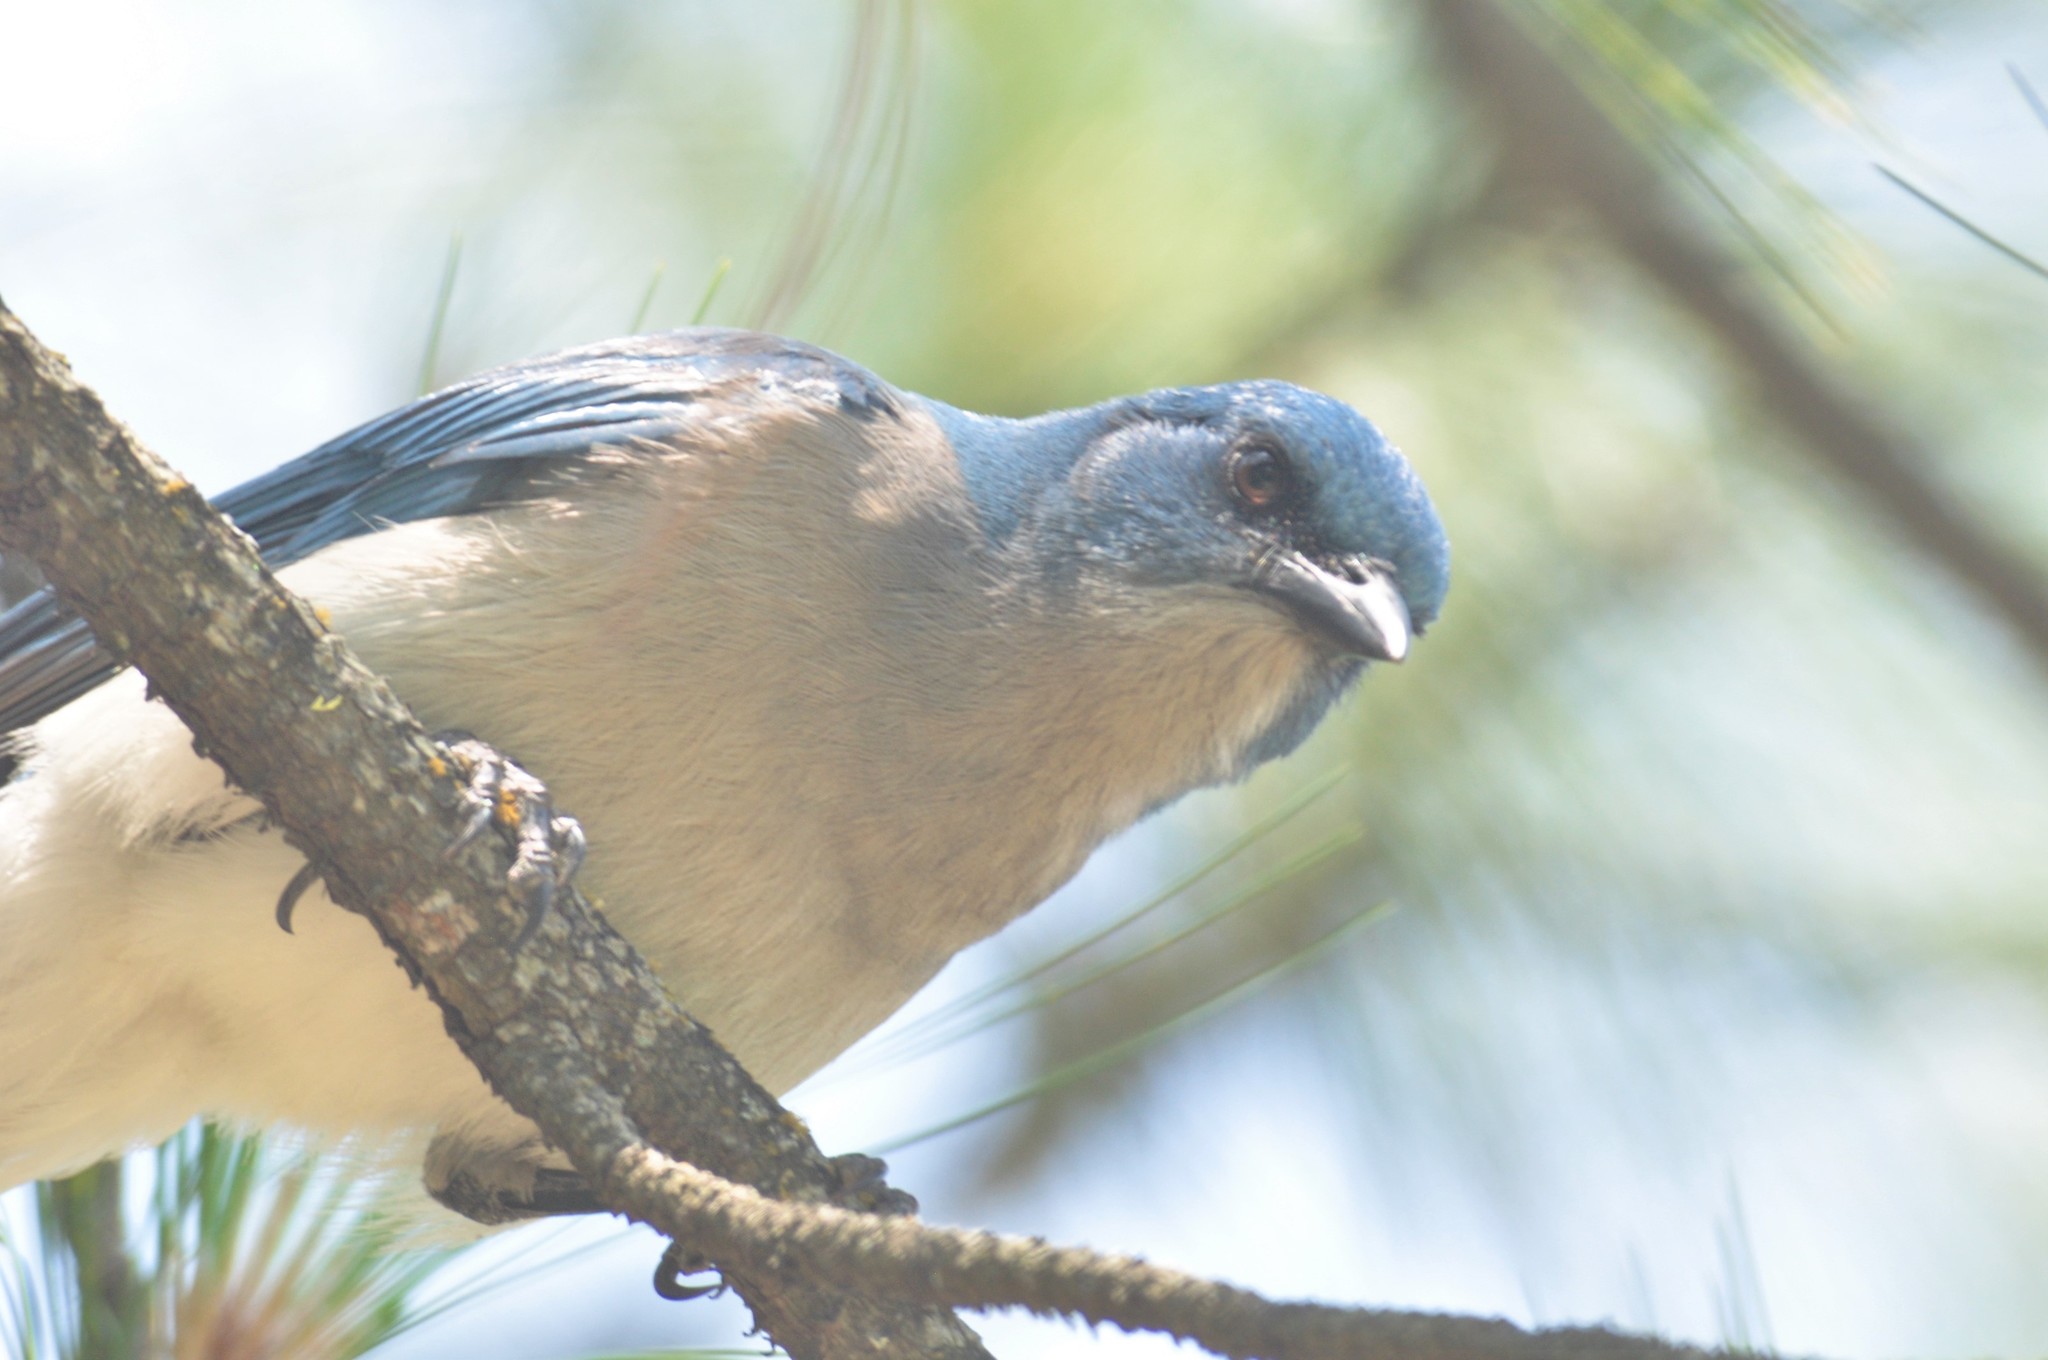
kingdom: Animalia
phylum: Chordata
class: Aves
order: Passeriformes
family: Corvidae
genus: Aphelocoma
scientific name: Aphelocoma wollweberi
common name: Mexican jay
